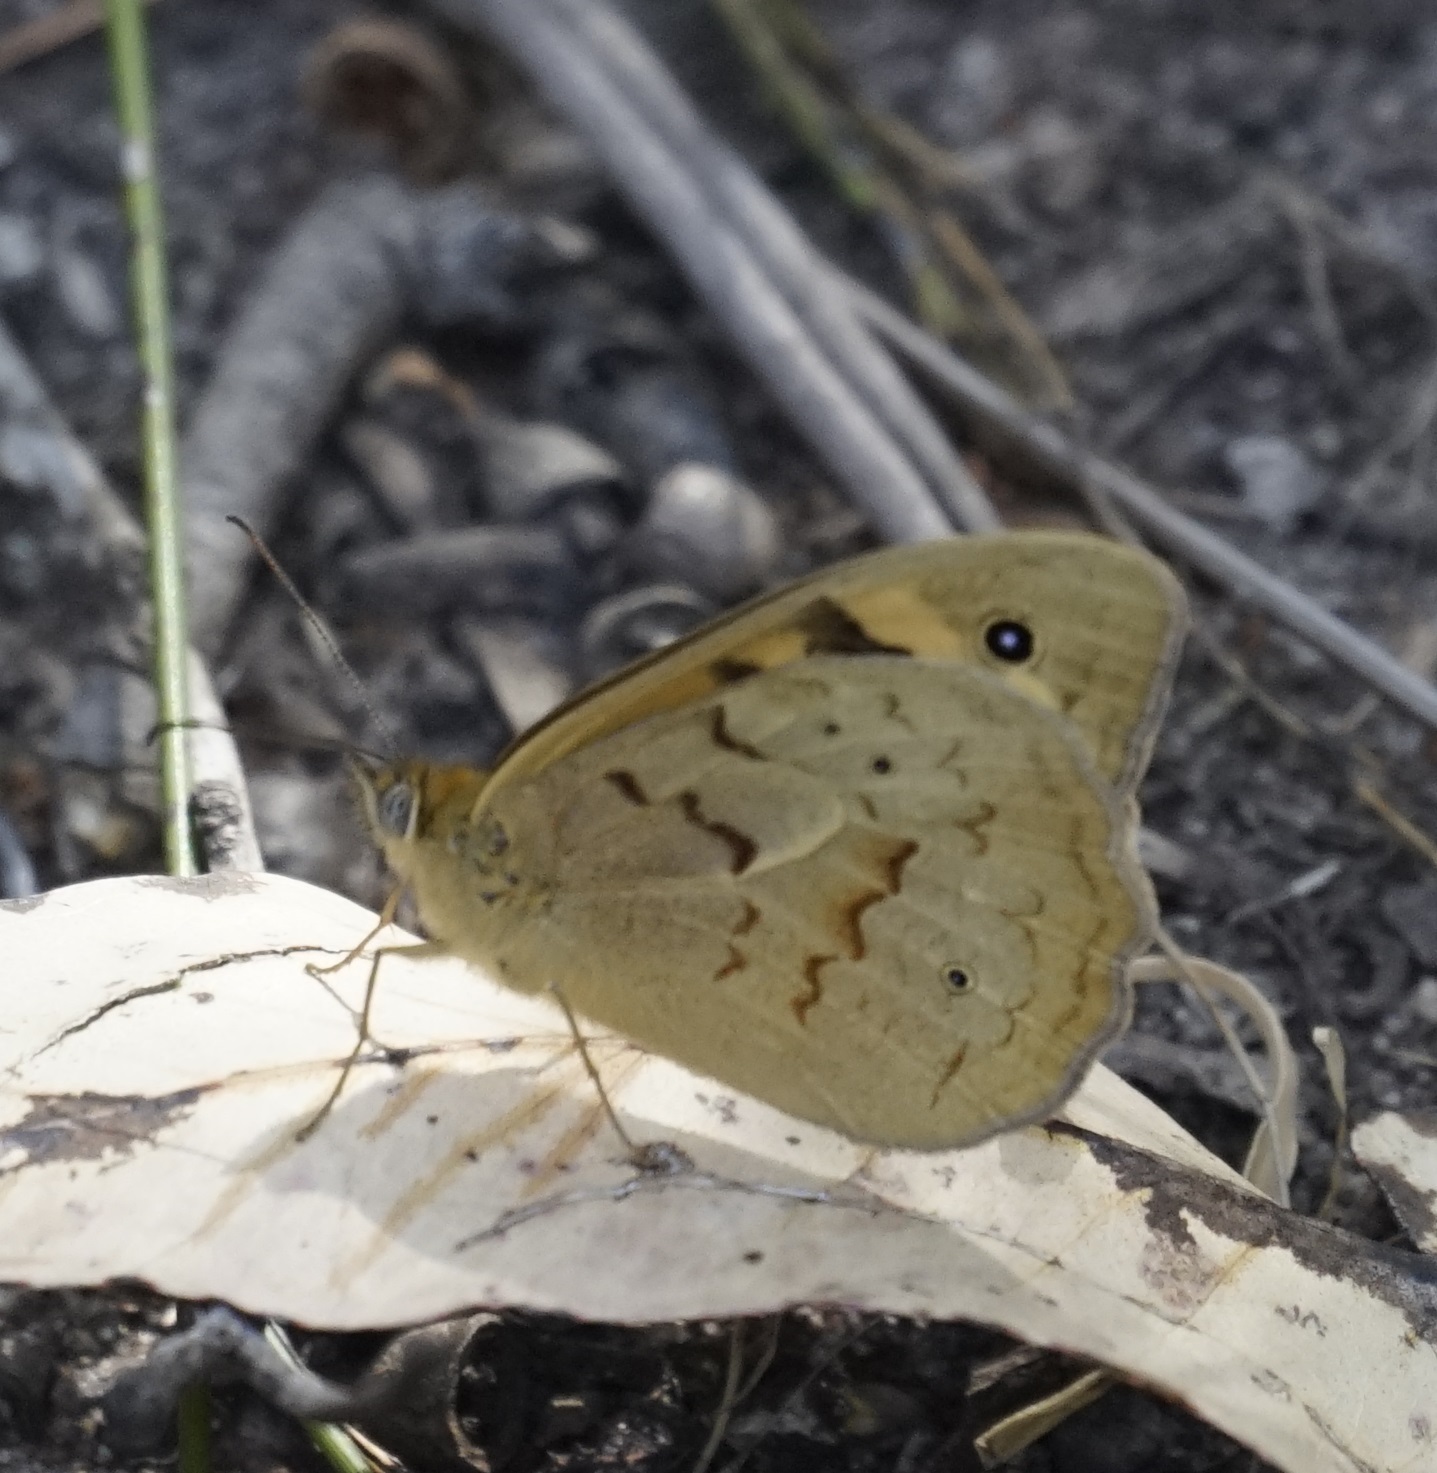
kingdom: Animalia
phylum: Arthropoda
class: Insecta
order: Lepidoptera
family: Nymphalidae
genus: Heteronympha
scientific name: Heteronympha merope
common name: Common brown
